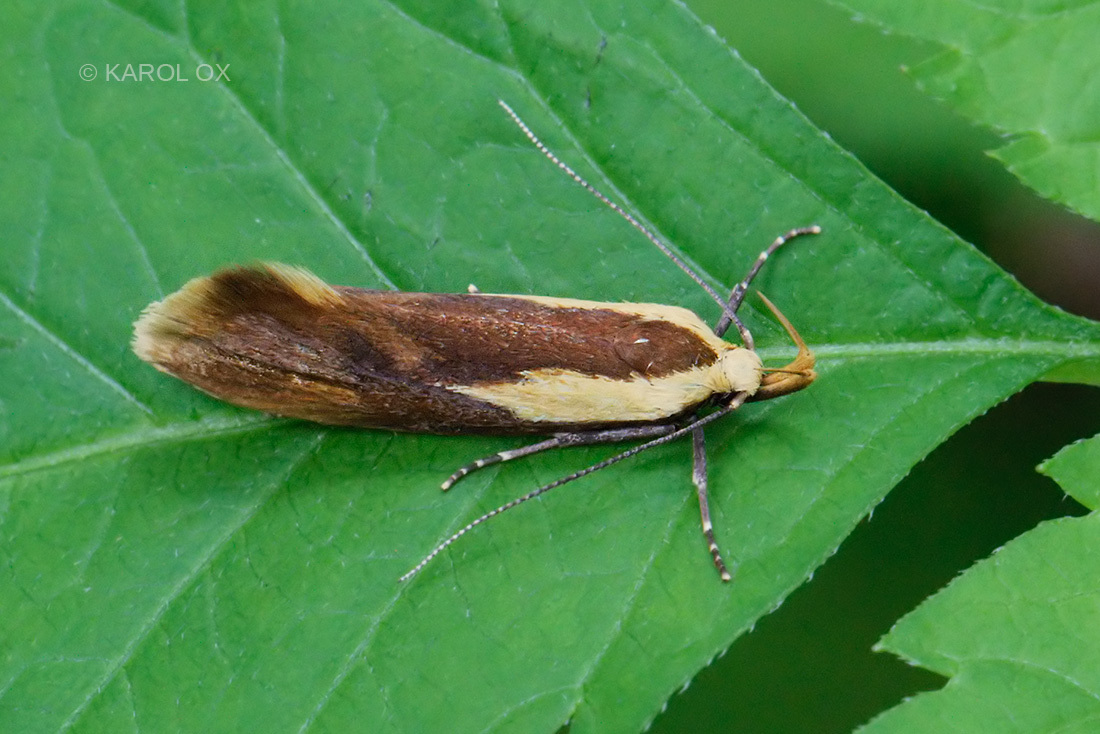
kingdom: Animalia
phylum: Arthropoda
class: Insecta
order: Lepidoptera
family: Oecophoridae
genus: Harpella
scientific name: Harpella forficella
